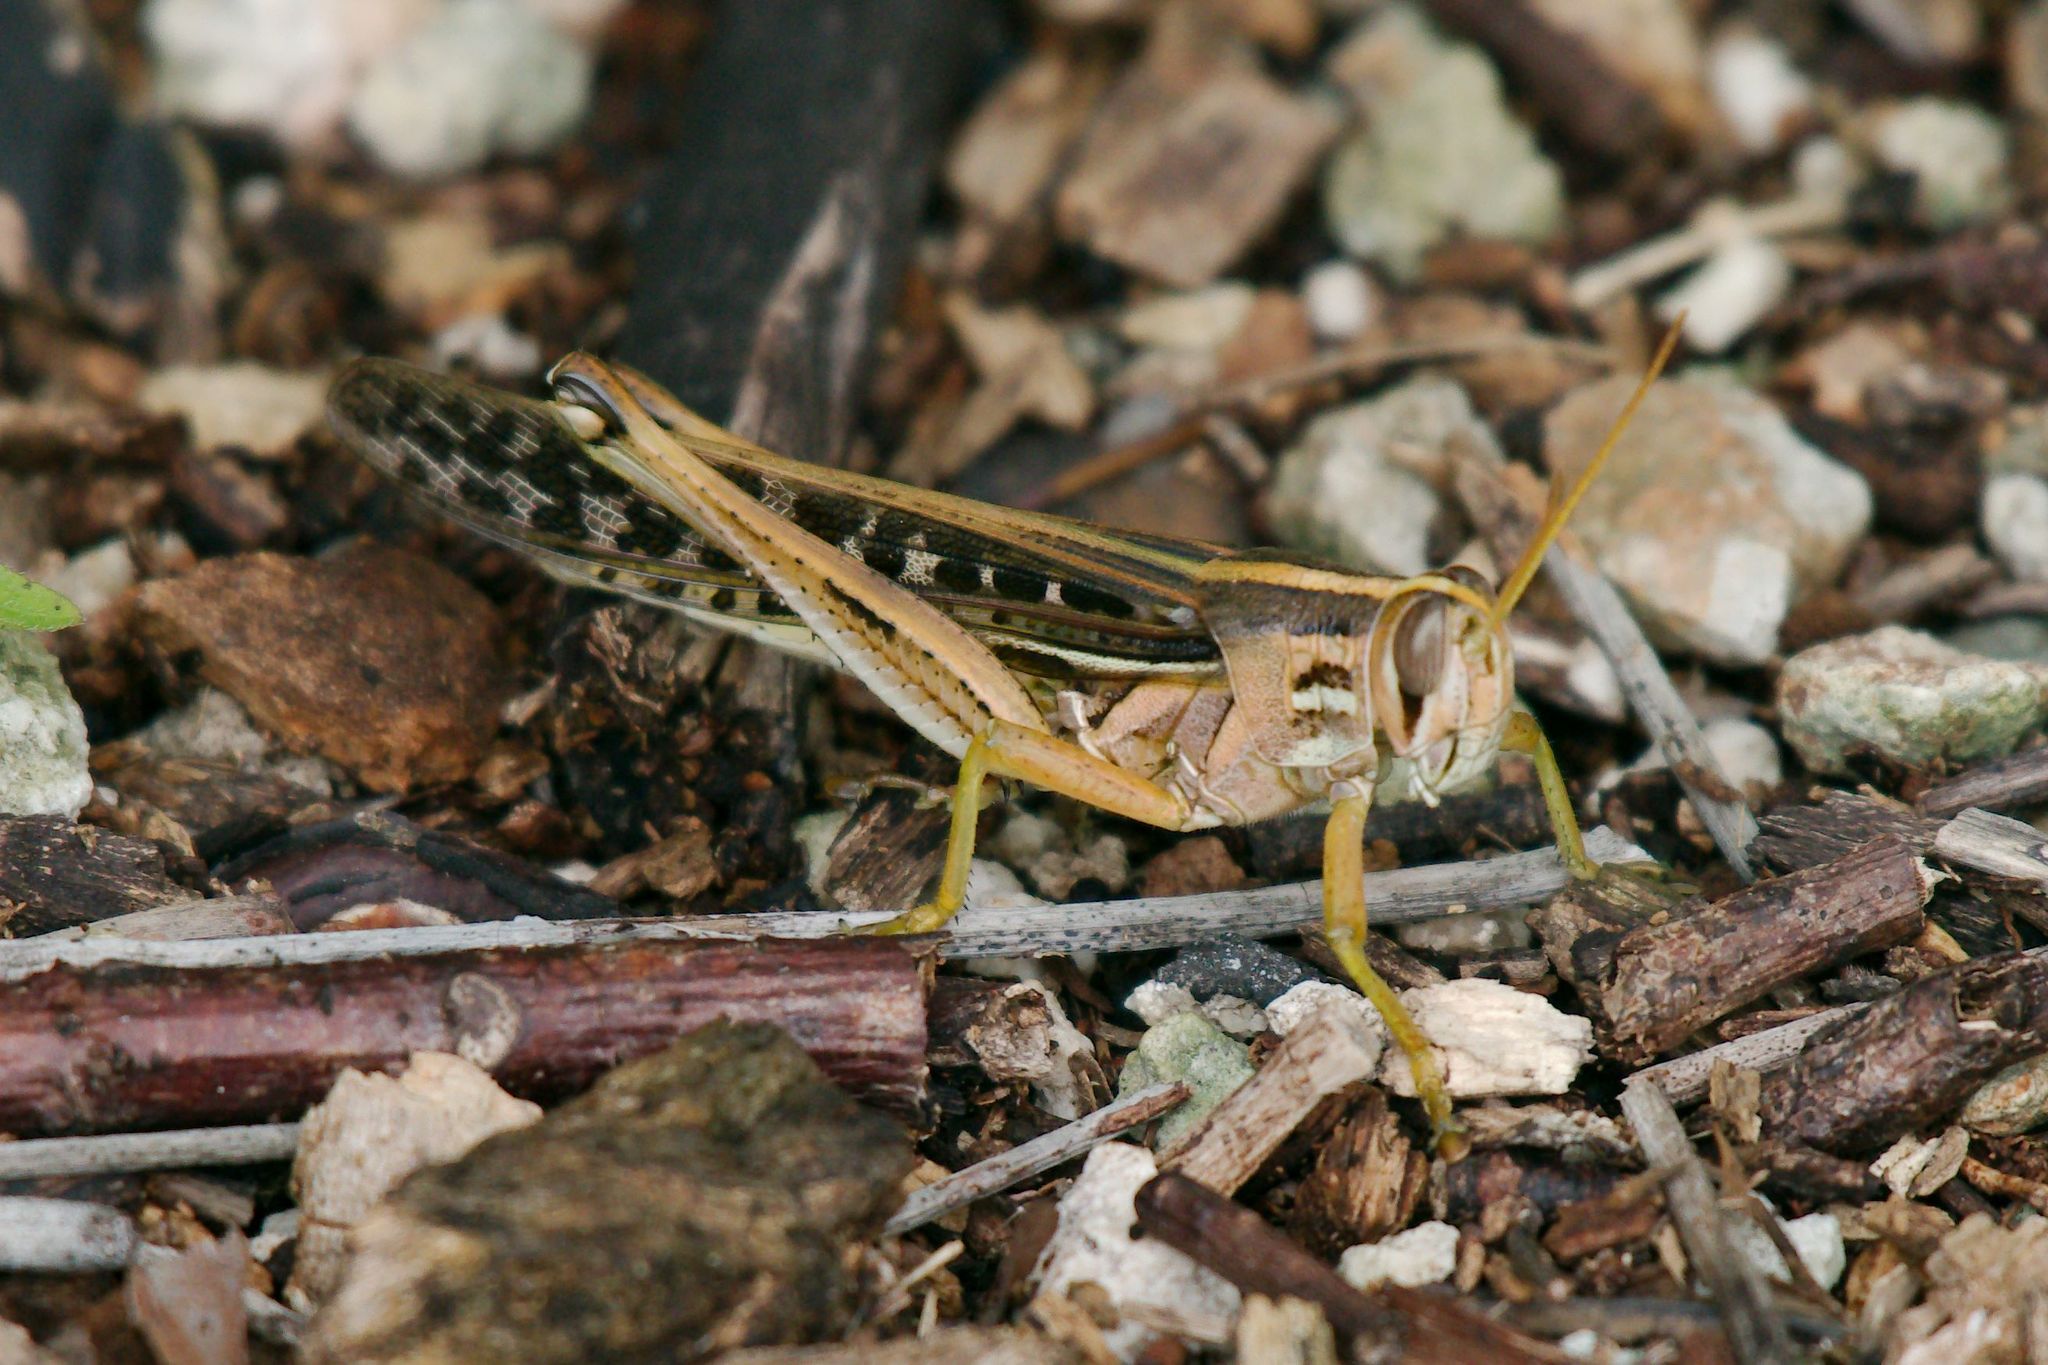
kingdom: Animalia
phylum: Arthropoda
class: Insecta
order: Orthoptera
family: Acrididae
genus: Schistocerca
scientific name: Schistocerca serialis
